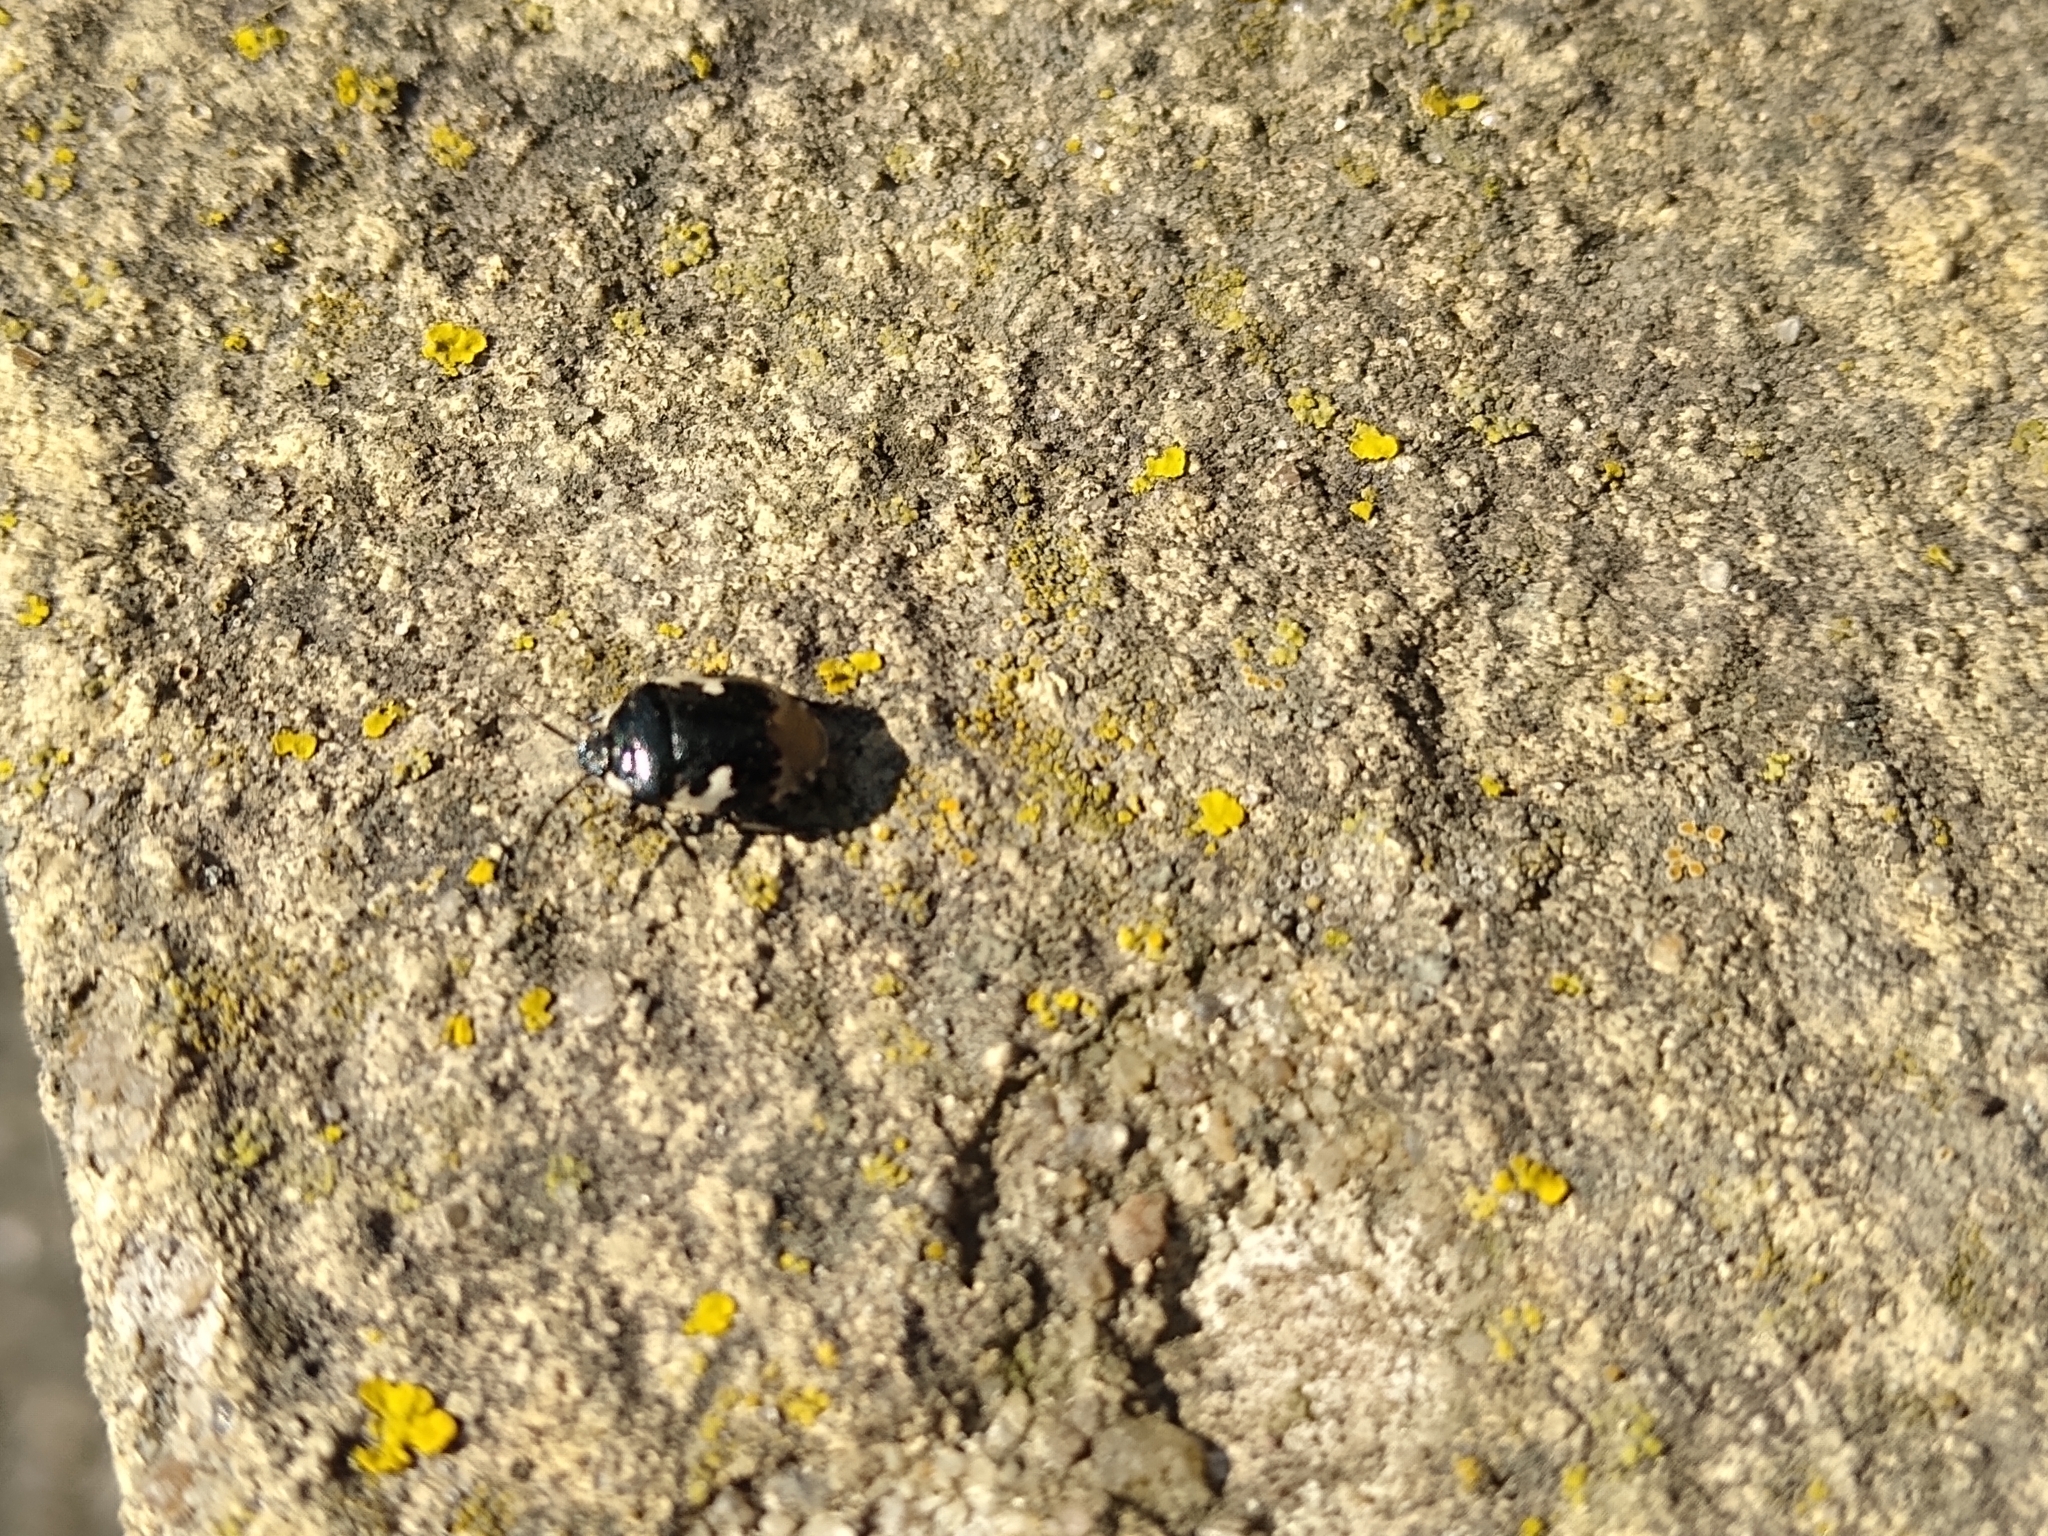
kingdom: Animalia
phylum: Arthropoda
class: Insecta
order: Hemiptera
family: Cydnidae
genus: Tritomegas
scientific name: Tritomegas bicolor
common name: Pied shieldbug
